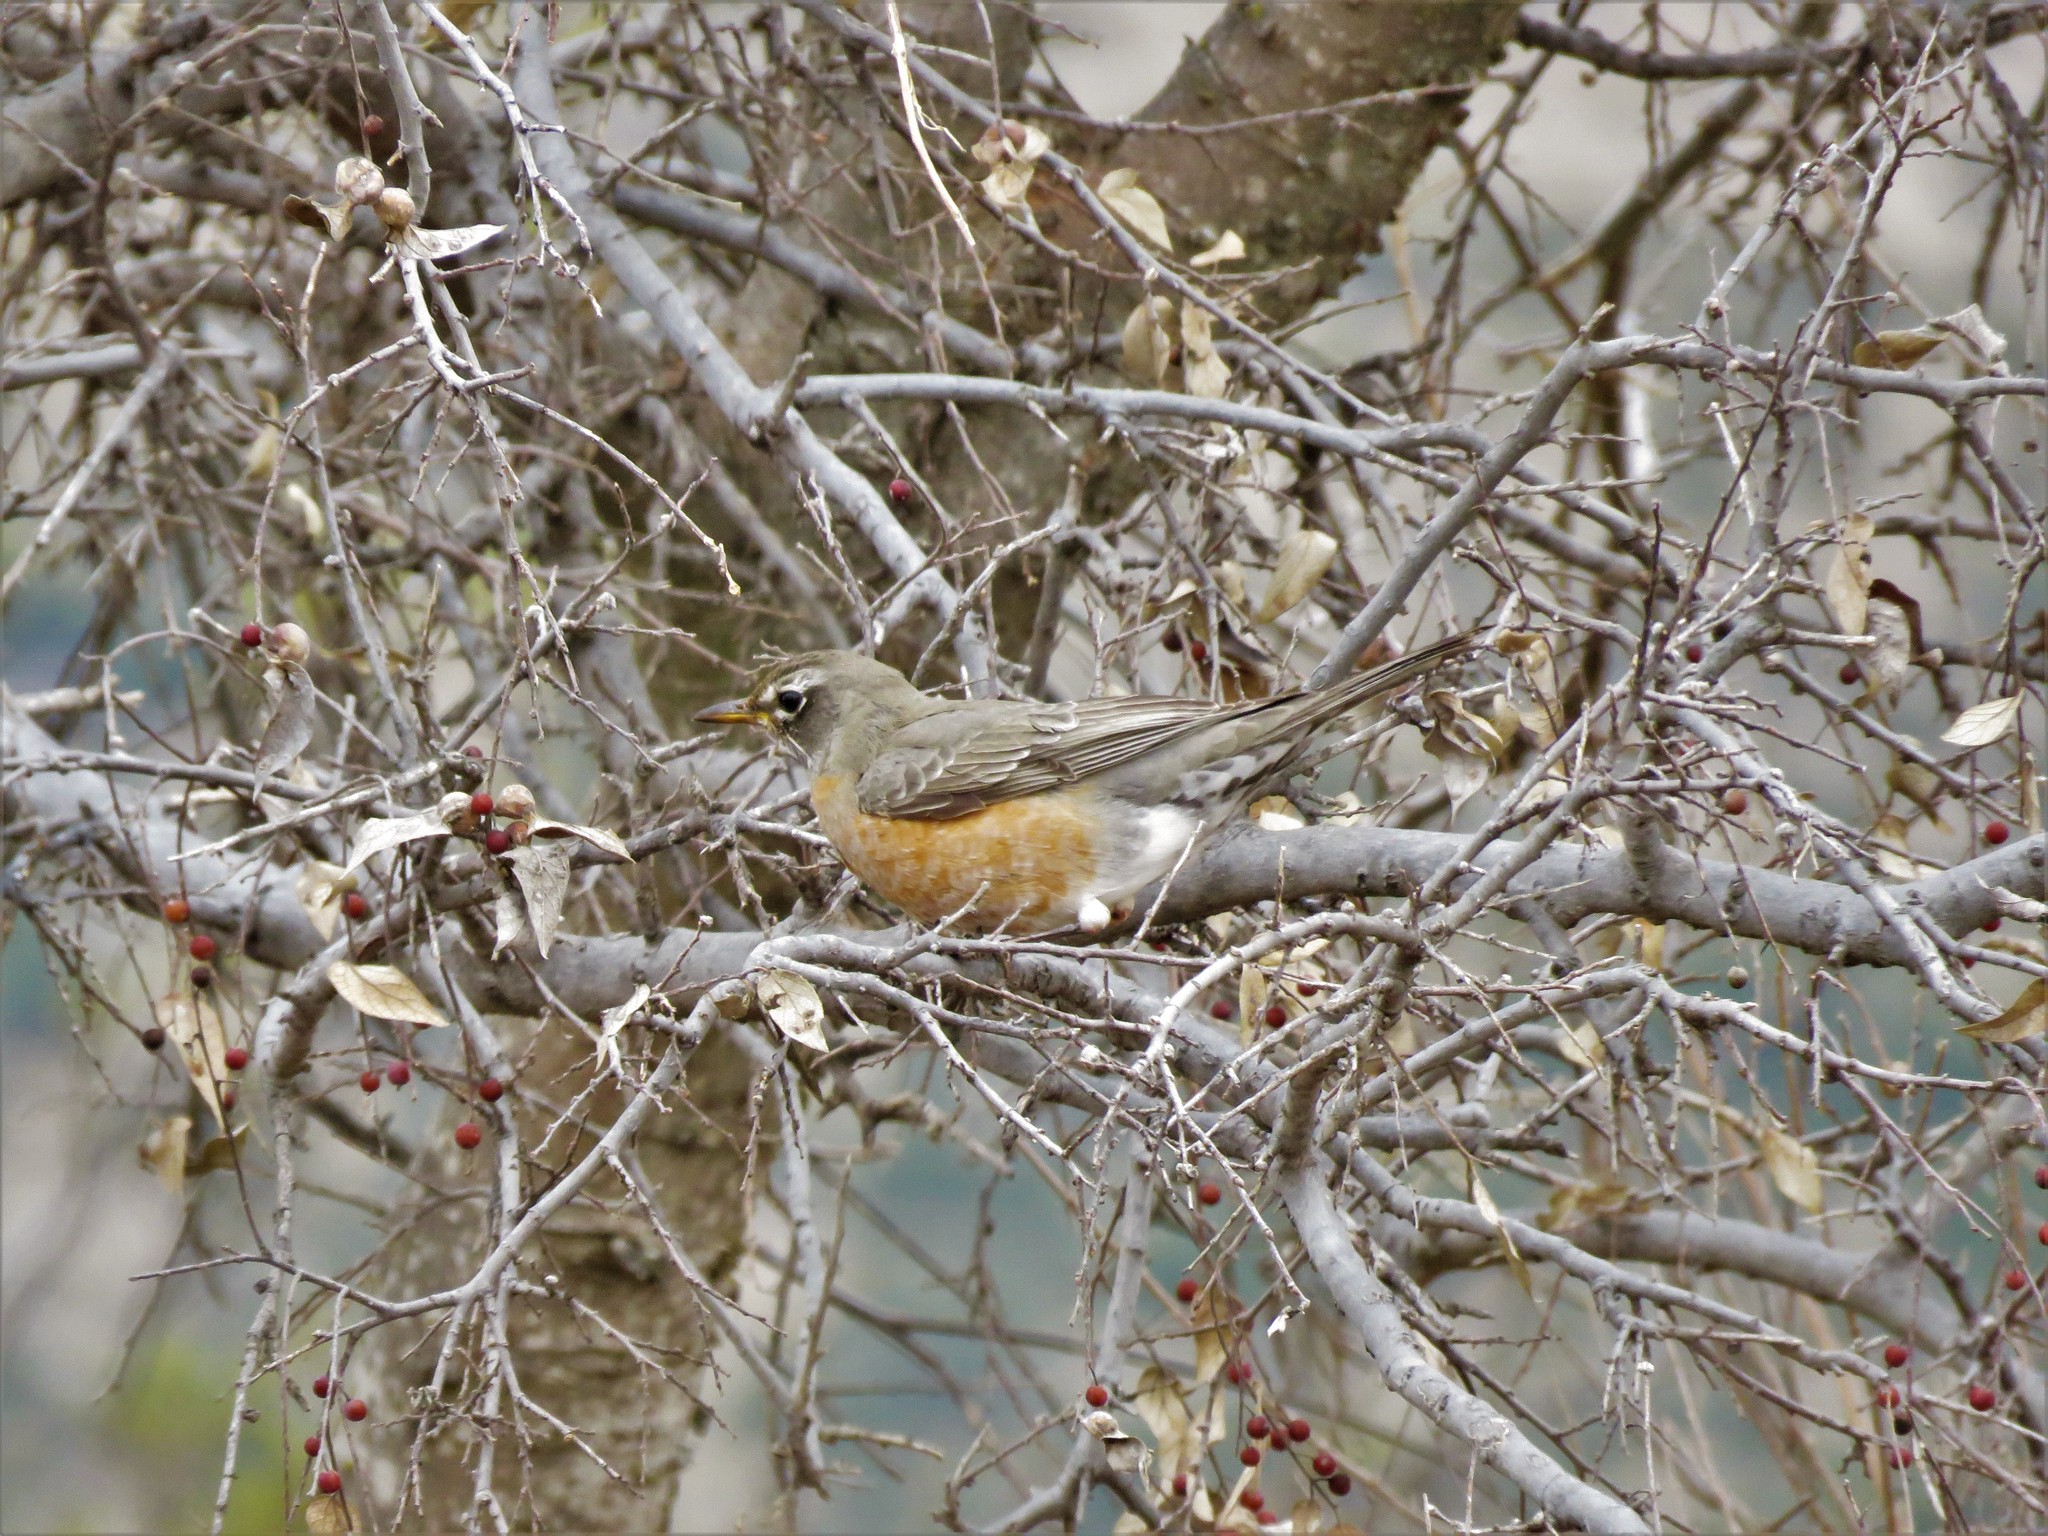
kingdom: Animalia
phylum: Chordata
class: Aves
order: Passeriformes
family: Turdidae
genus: Turdus
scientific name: Turdus migratorius
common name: American robin
